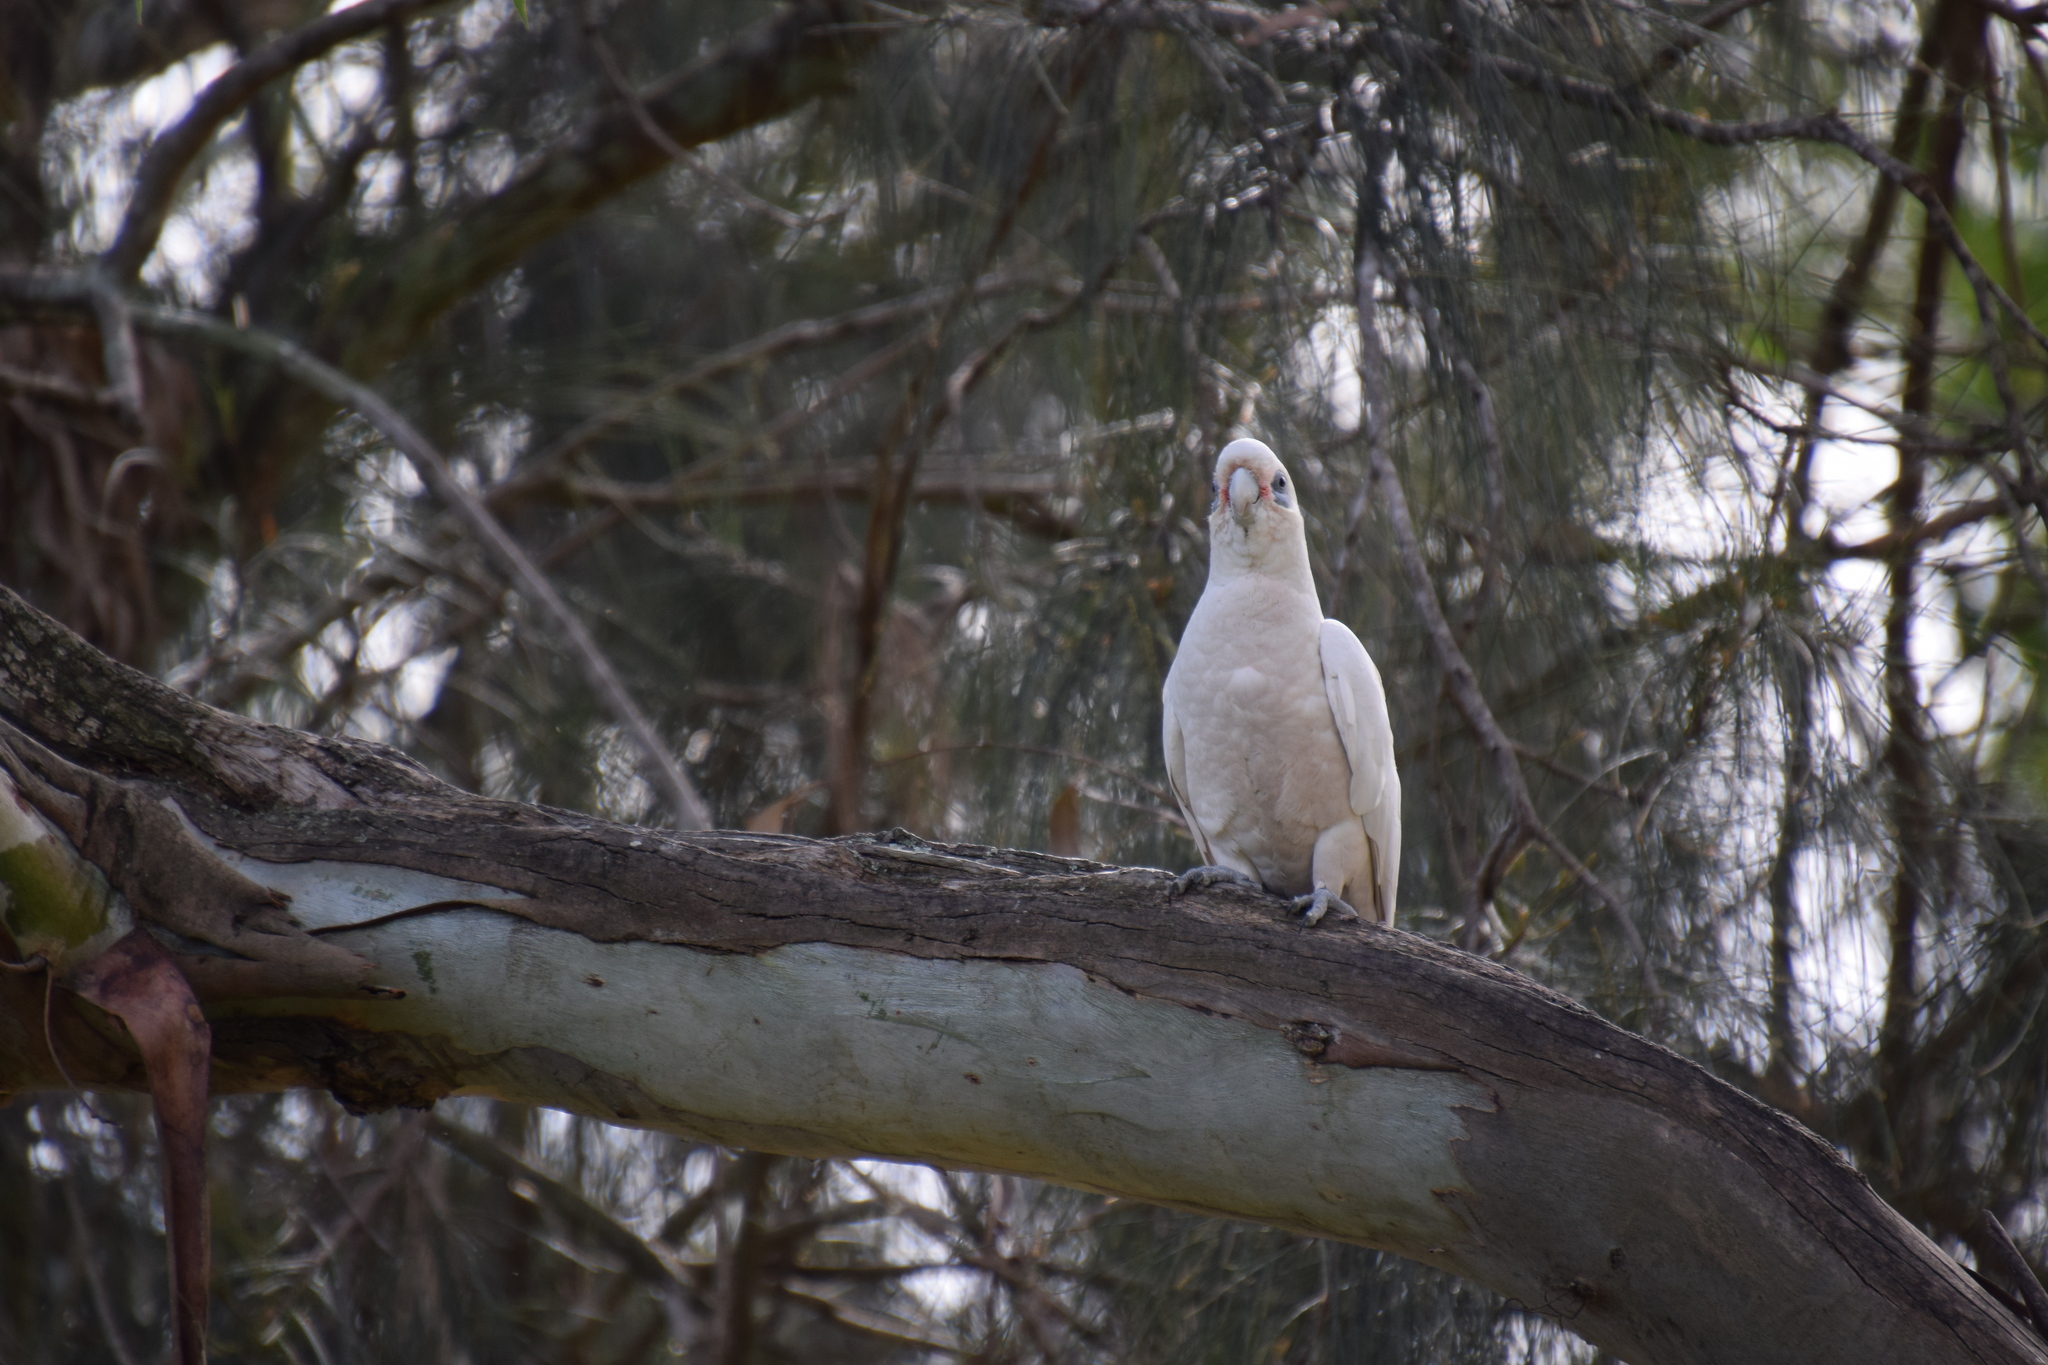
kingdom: Animalia
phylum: Chordata
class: Aves
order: Psittaciformes
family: Psittacidae
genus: Cacatua
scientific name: Cacatua sanguinea
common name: Little corella
